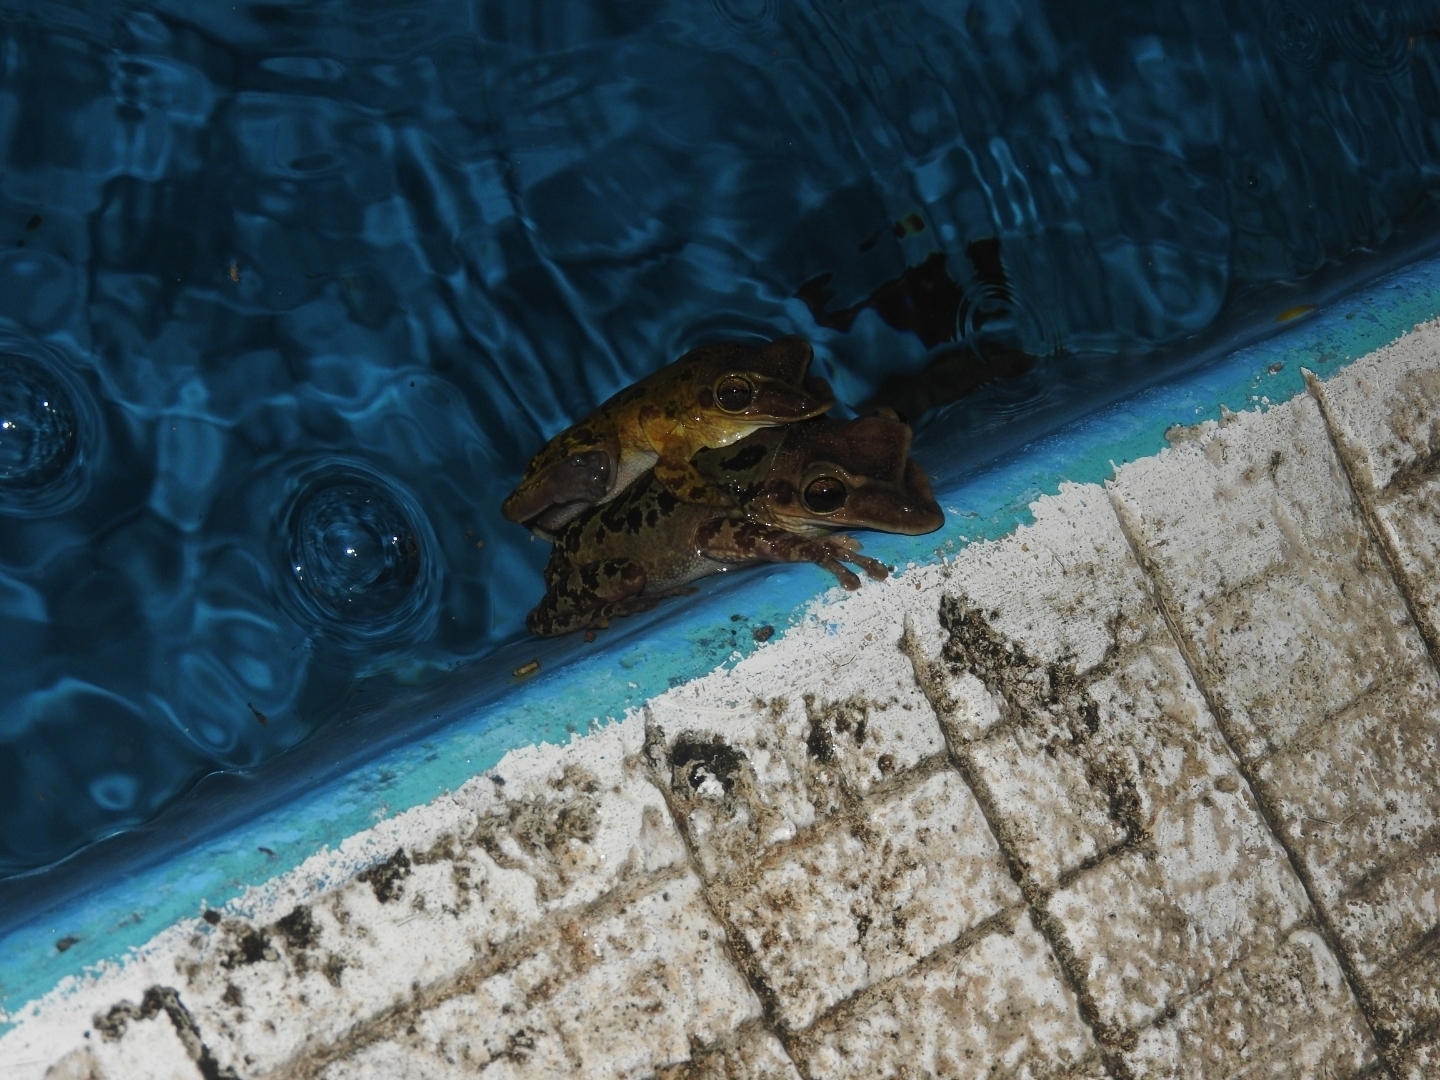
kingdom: Animalia
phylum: Chordata
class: Amphibia
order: Anura
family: Hylidae
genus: Triprion
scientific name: Triprion petasatus
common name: Yucatecan casque-headed treefrog
